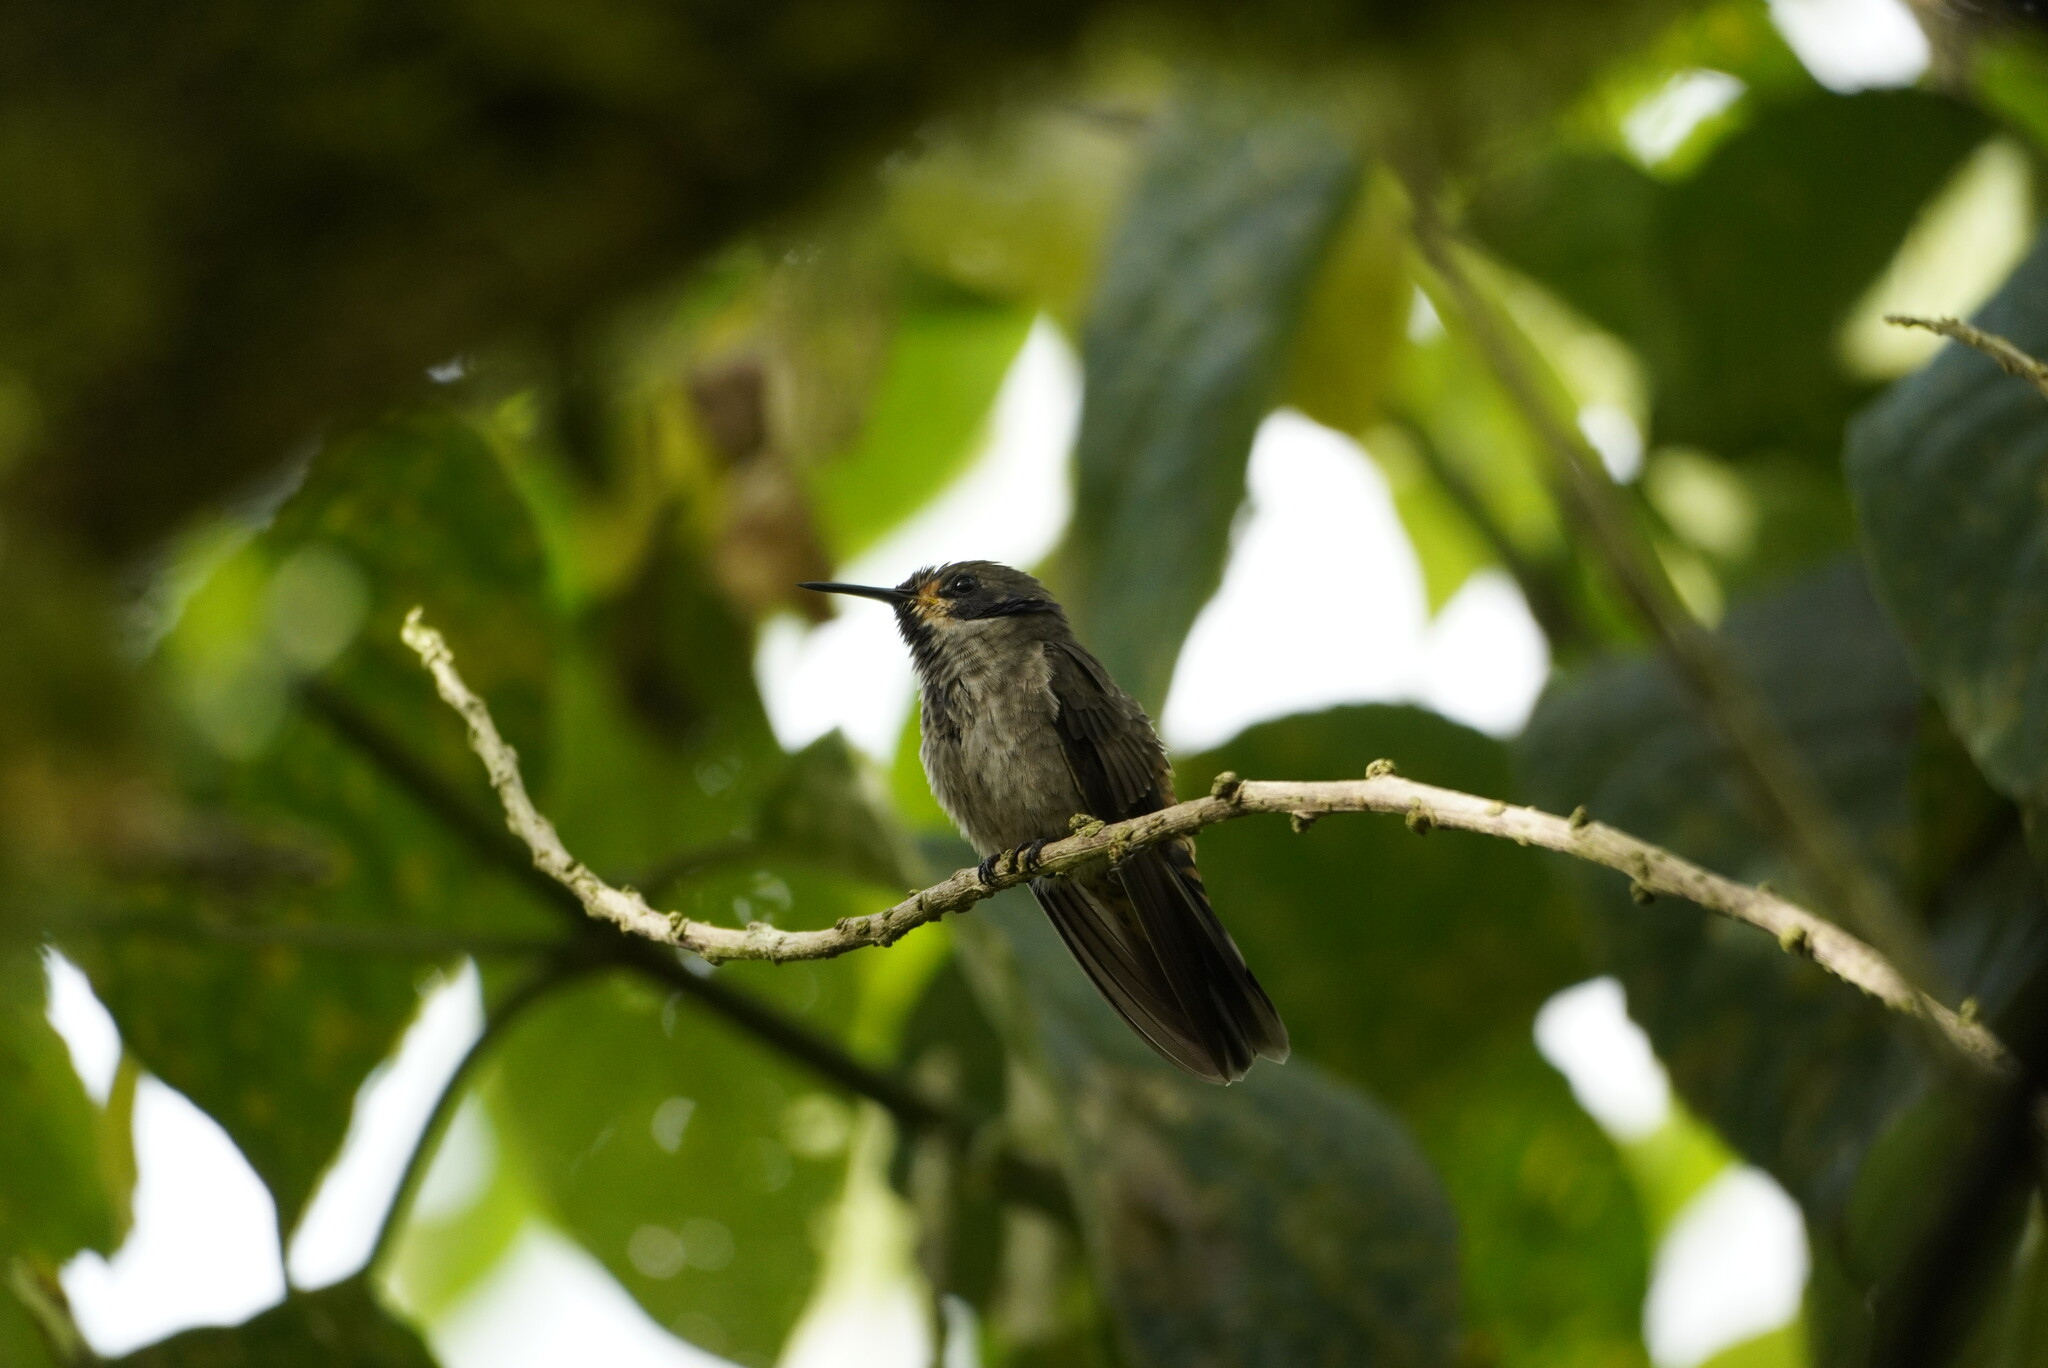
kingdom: Animalia
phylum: Chordata
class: Aves
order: Apodiformes
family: Trochilidae
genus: Colibri
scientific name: Colibri delphinae
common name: Brown violetear
